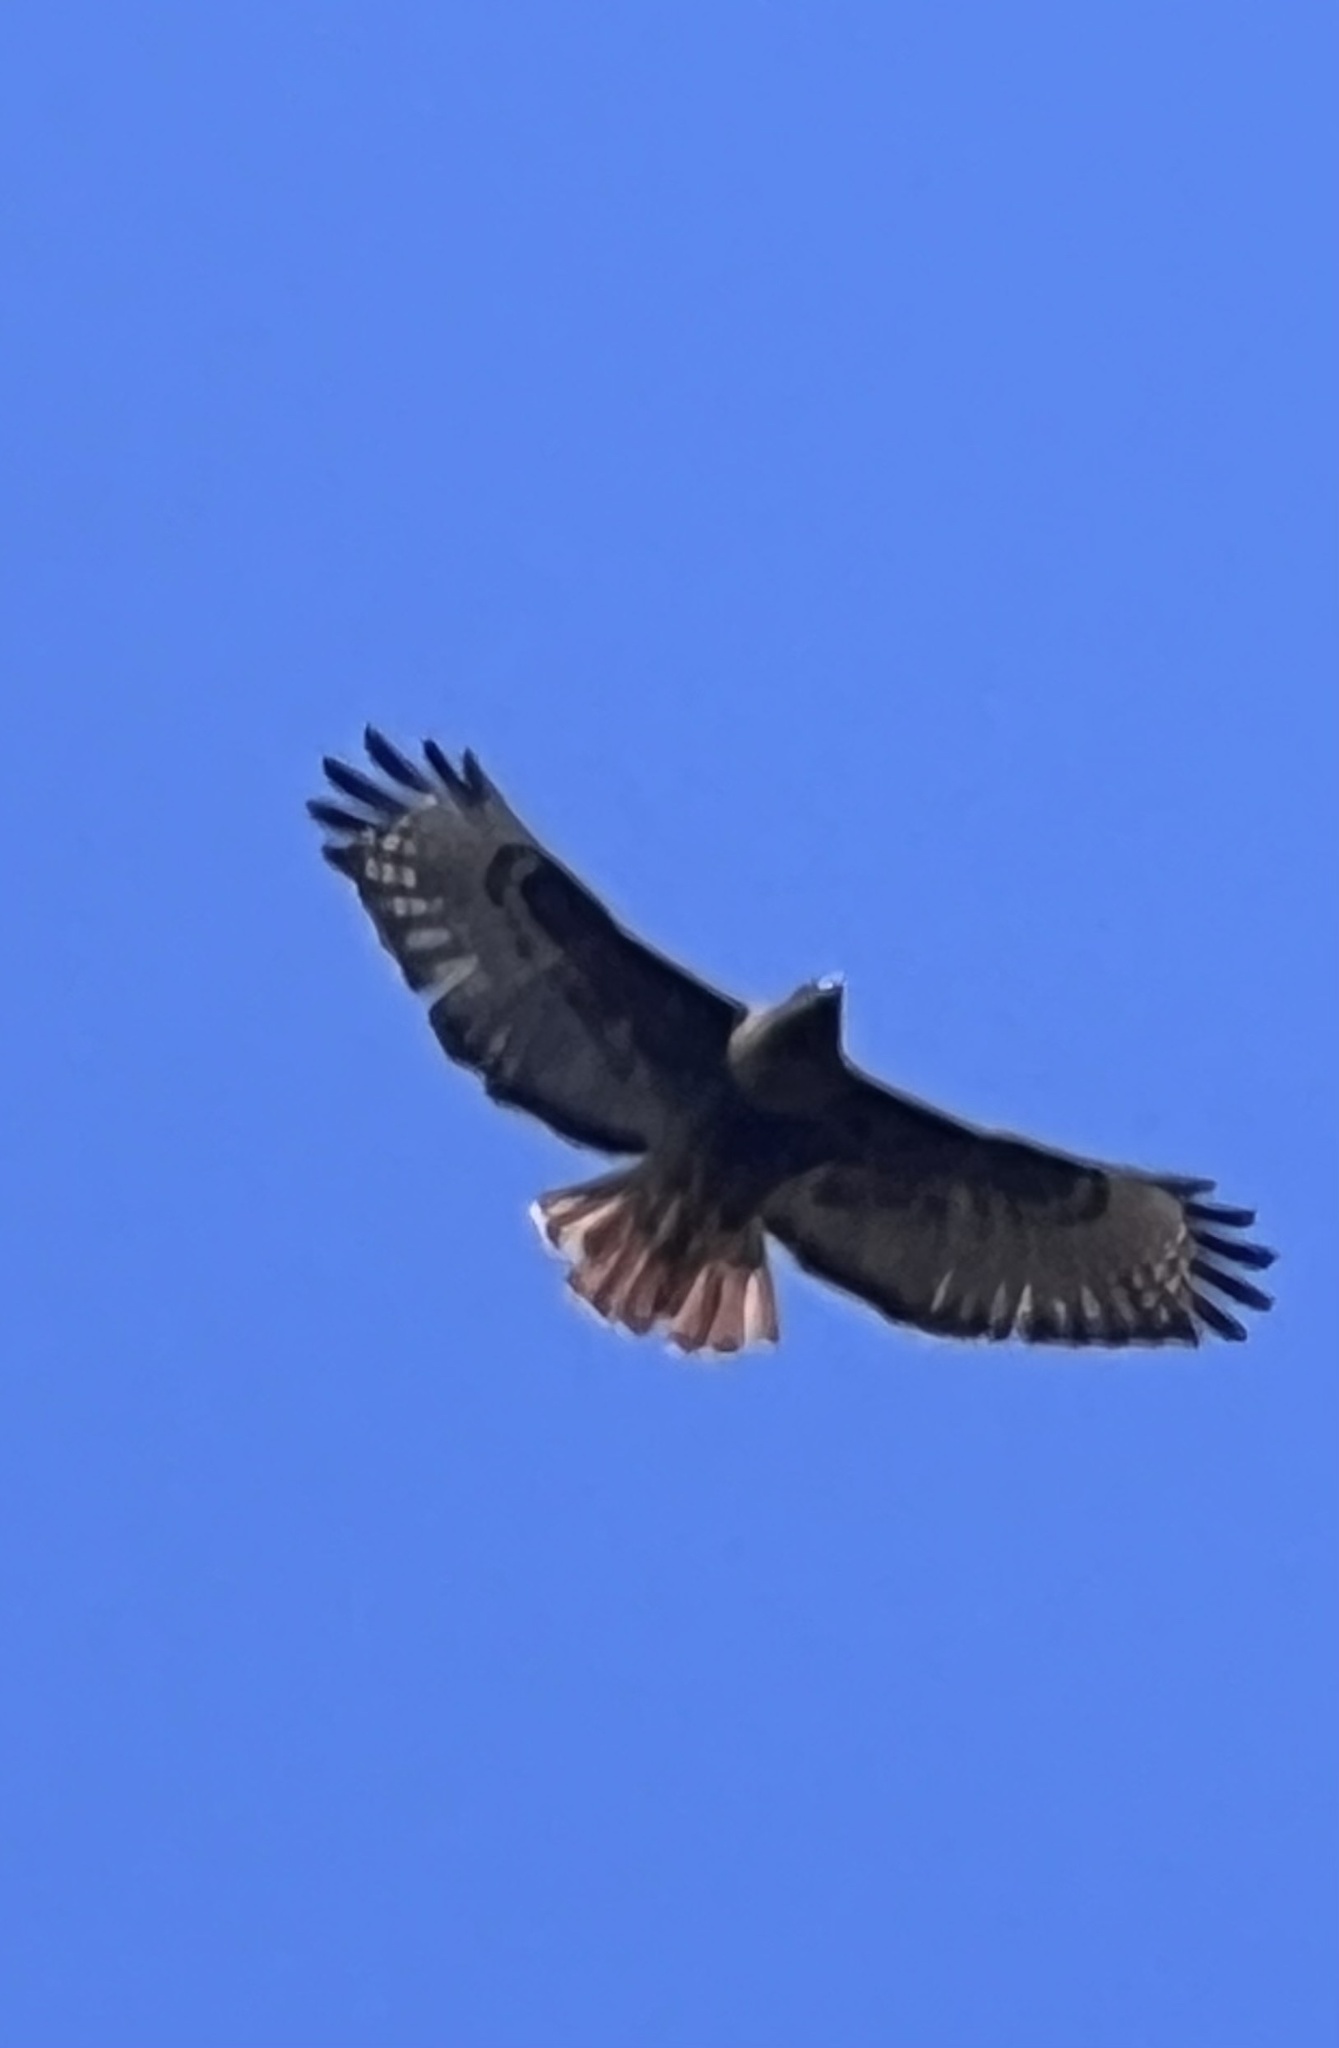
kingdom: Animalia
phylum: Chordata
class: Aves
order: Accipitriformes
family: Accipitridae
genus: Buteo
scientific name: Buteo jamaicensis
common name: Red-tailed hawk
